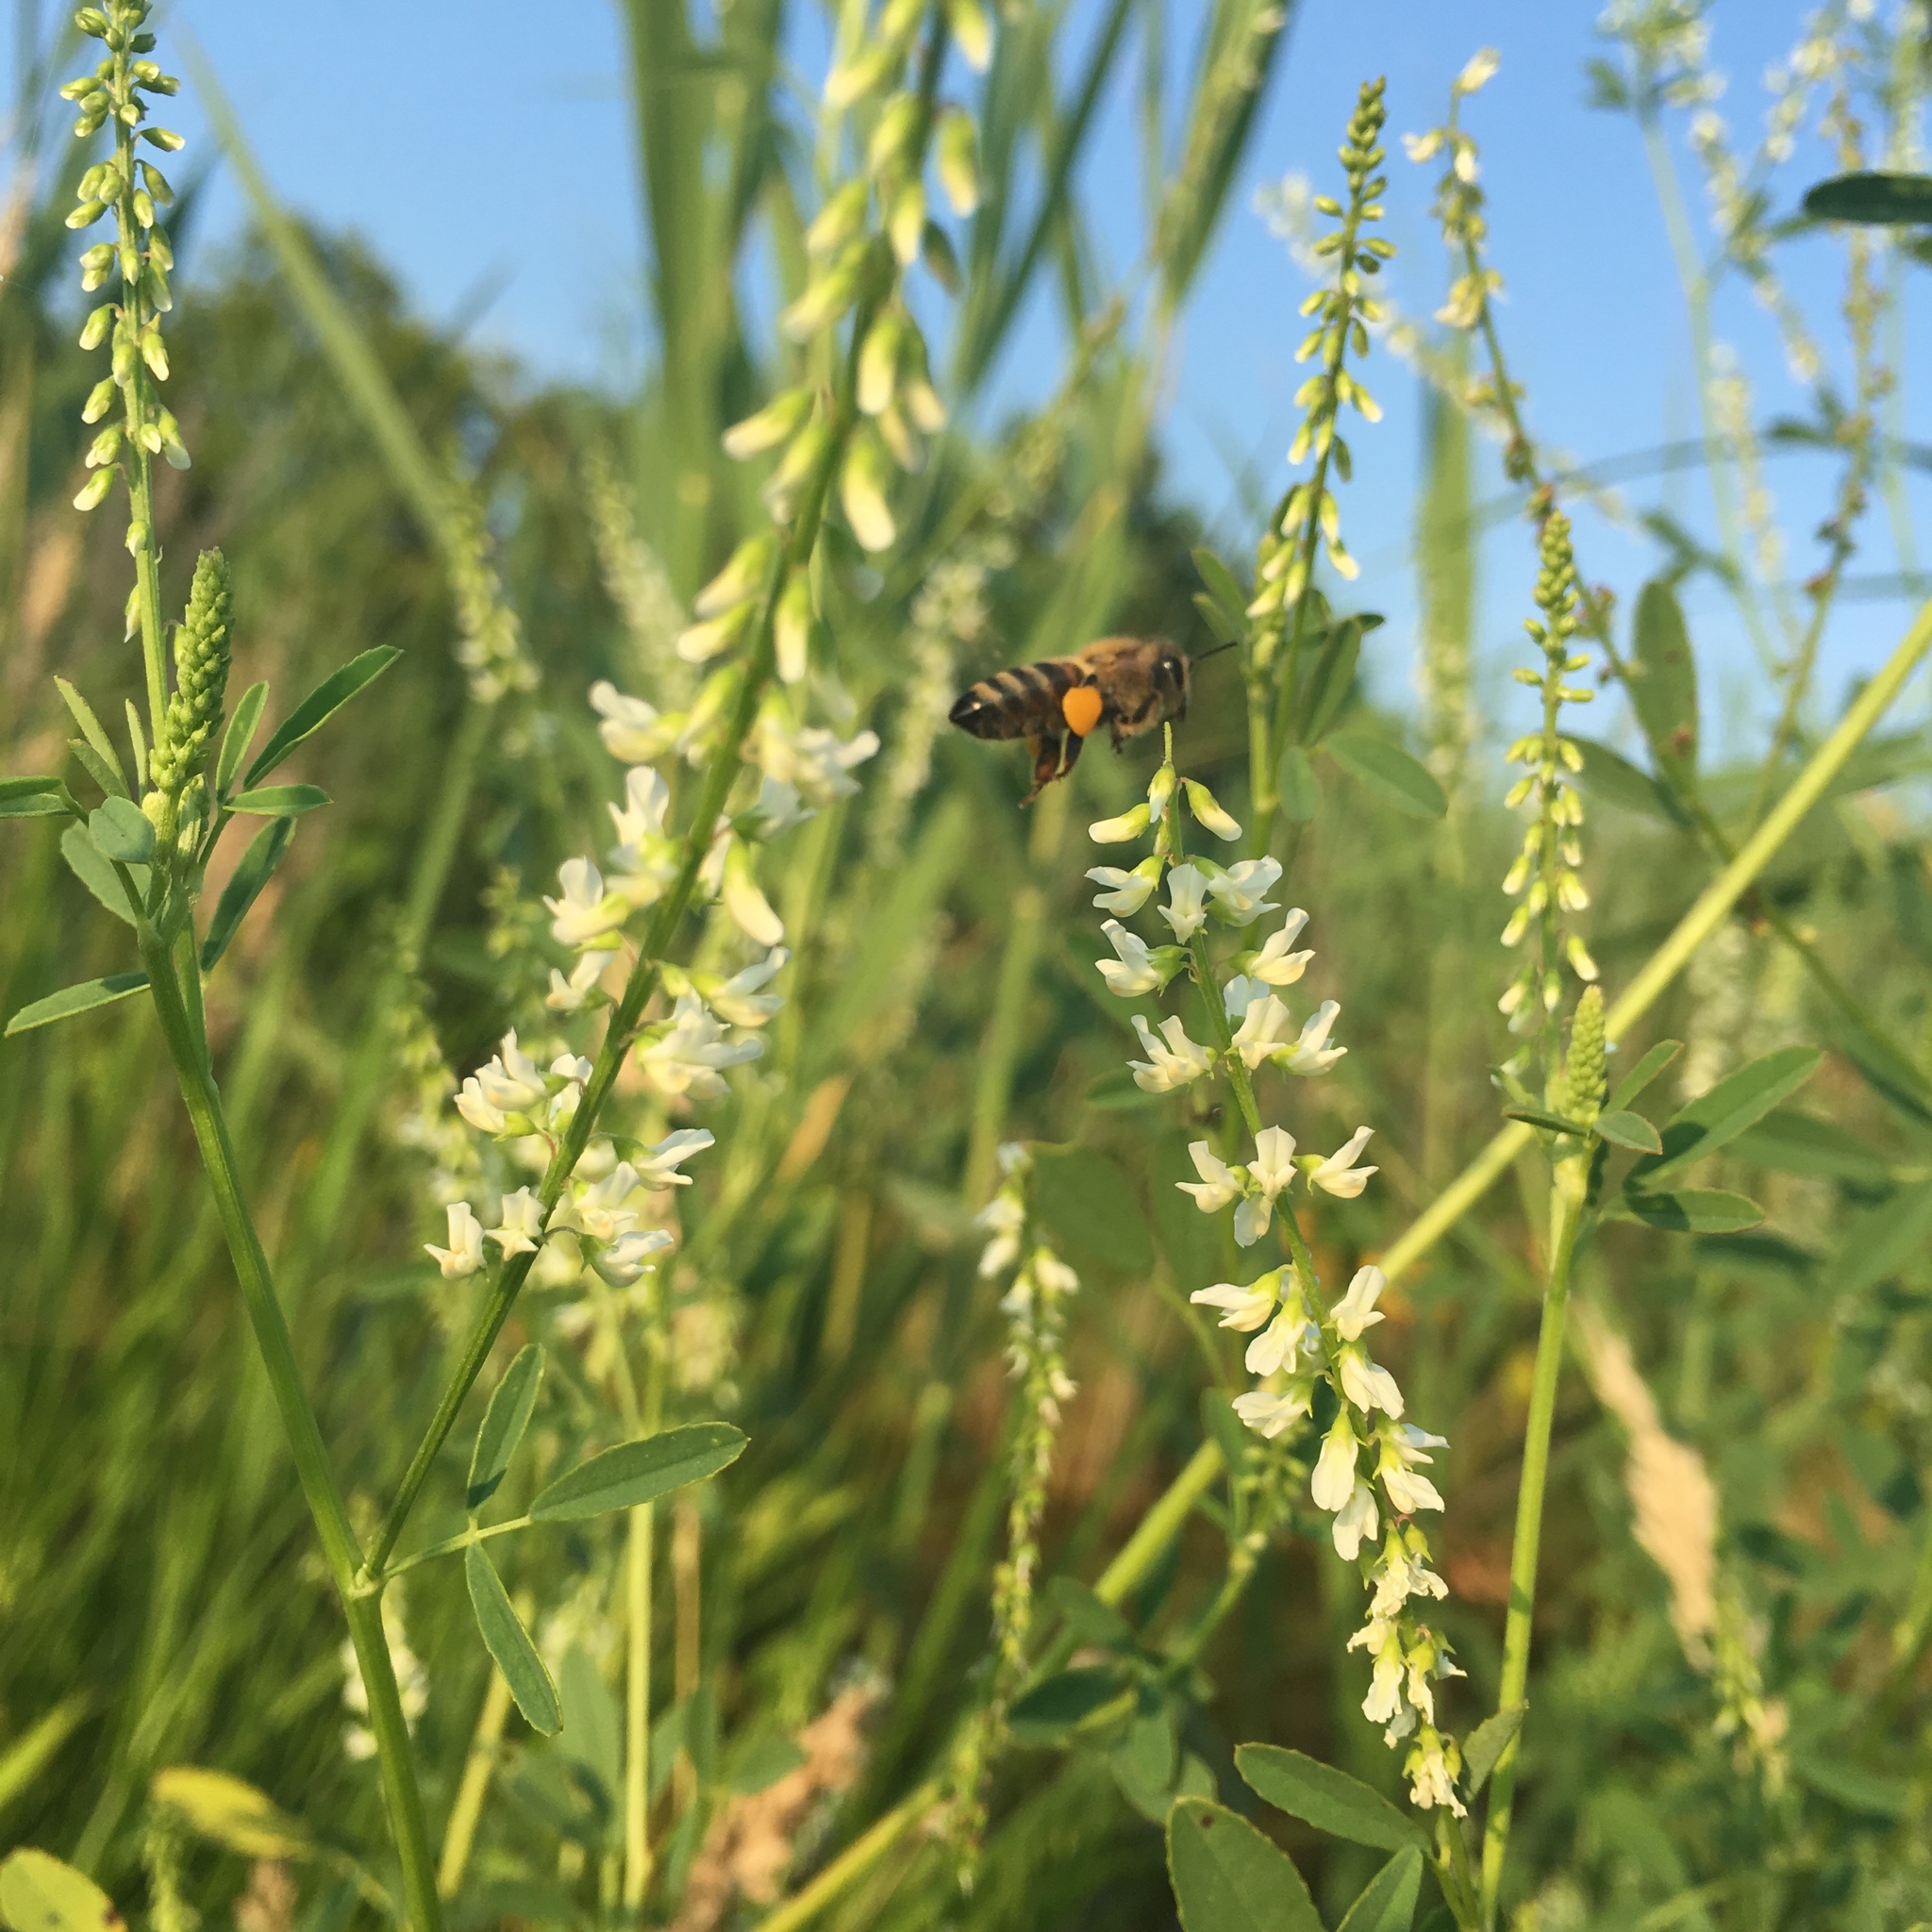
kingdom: Animalia
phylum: Arthropoda
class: Insecta
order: Hymenoptera
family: Apidae
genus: Apis
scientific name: Apis mellifera
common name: Honey bee
